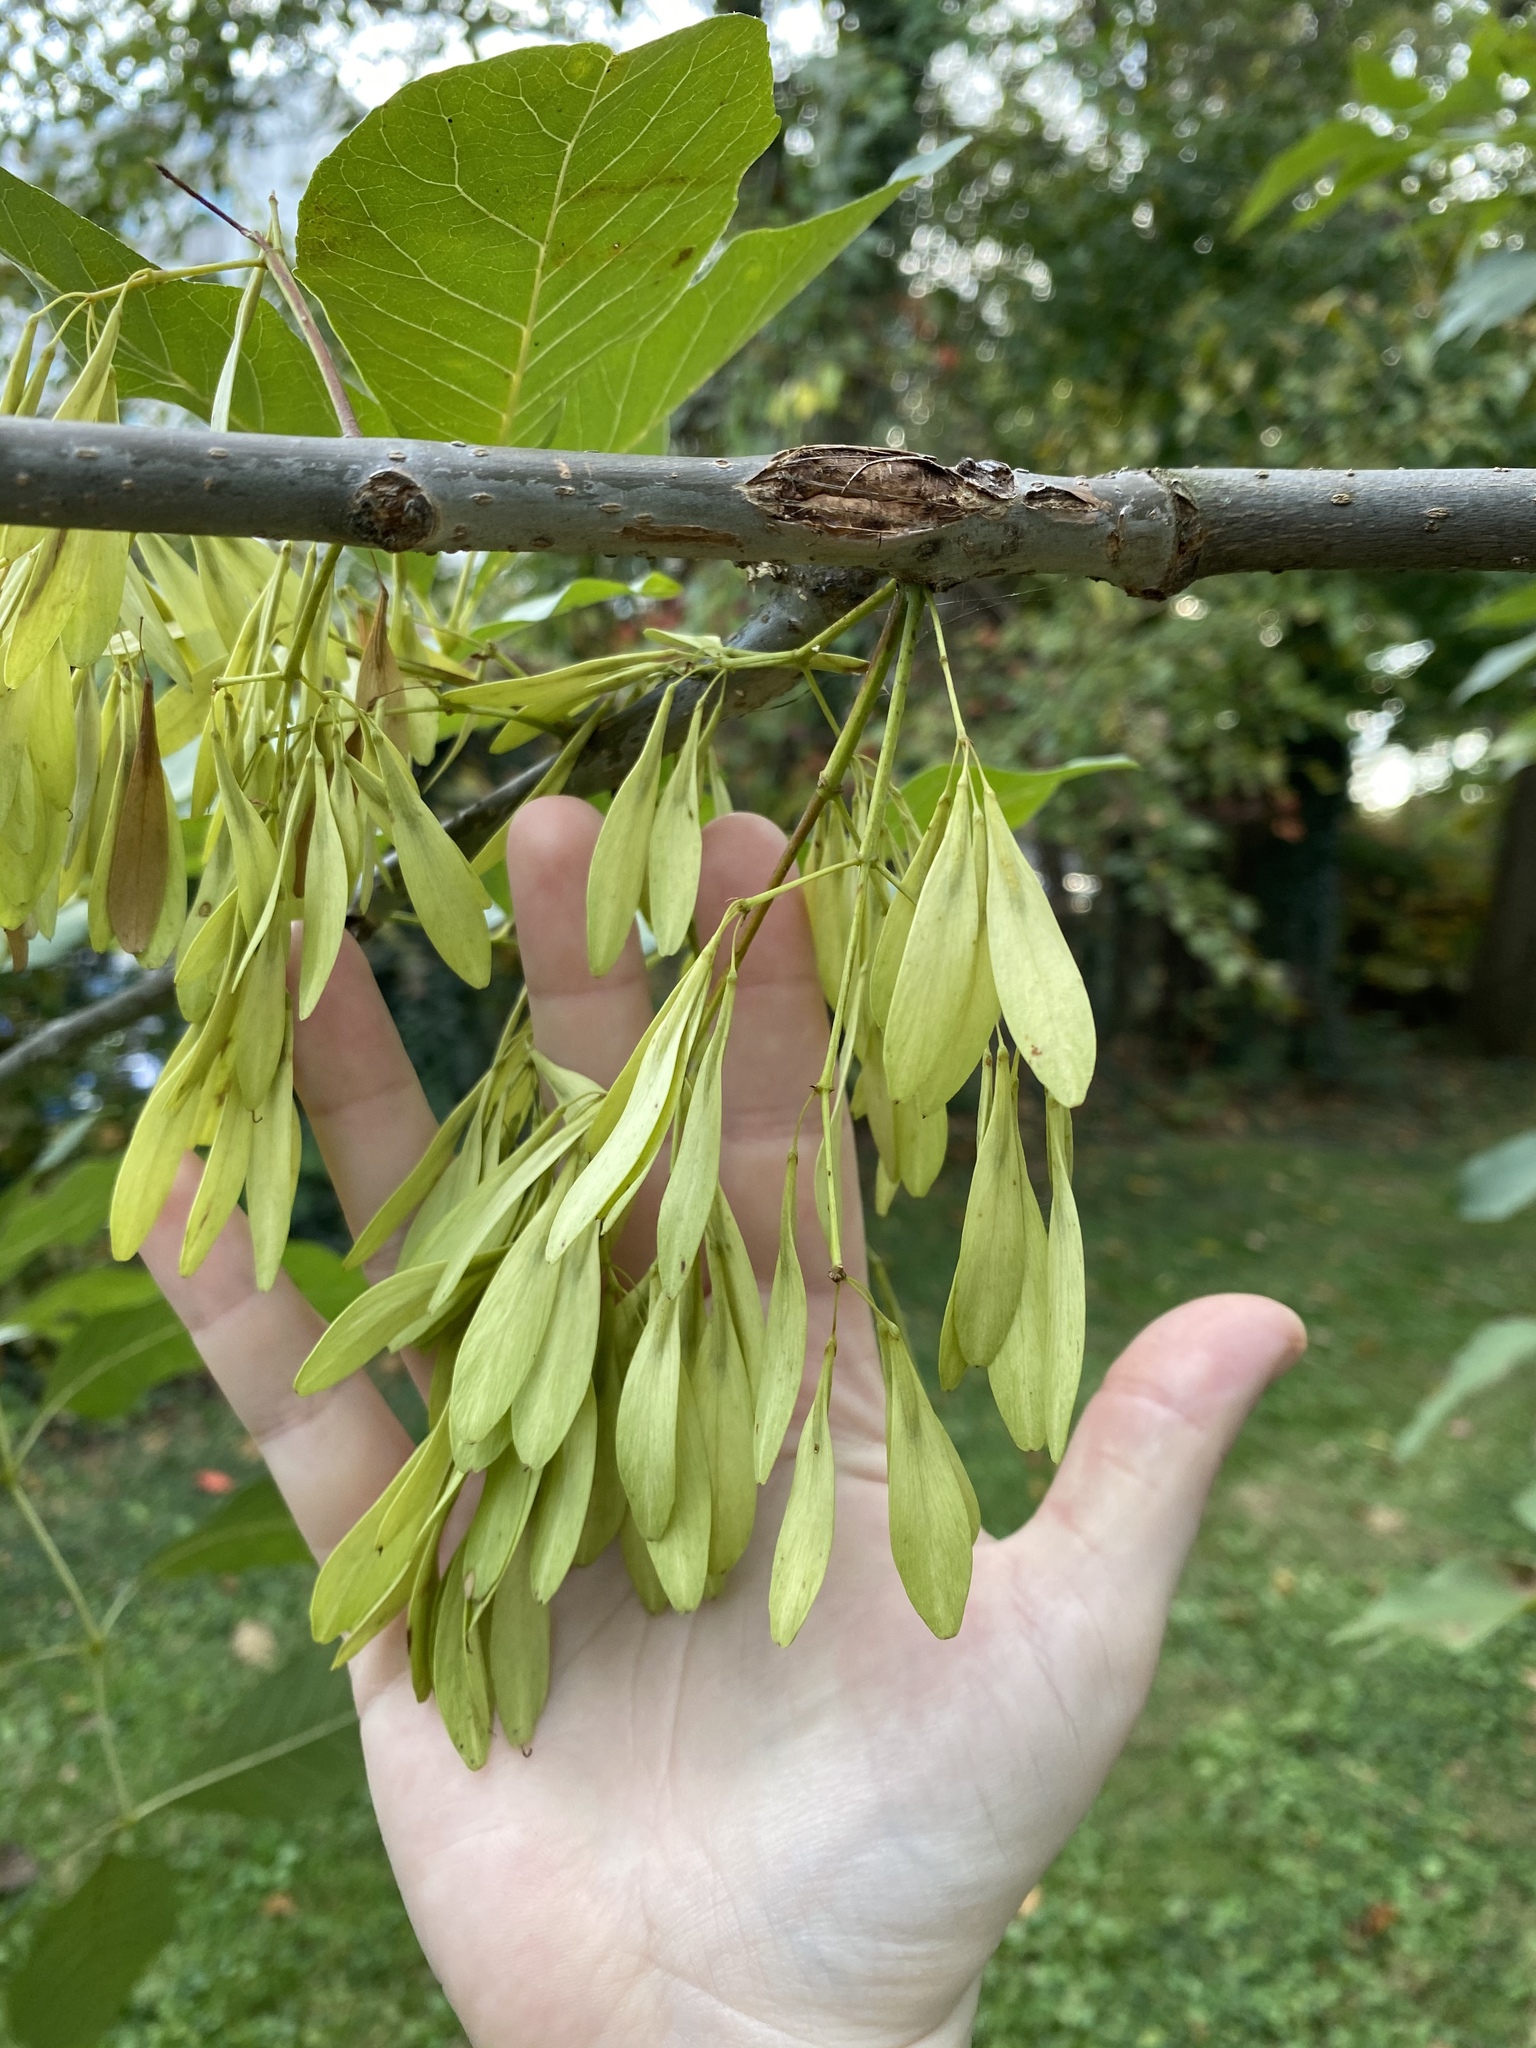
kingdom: Plantae
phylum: Tracheophyta
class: Magnoliopsida
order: Lamiales
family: Oleaceae
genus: Fraxinus
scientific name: Fraxinus americana
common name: White ash
